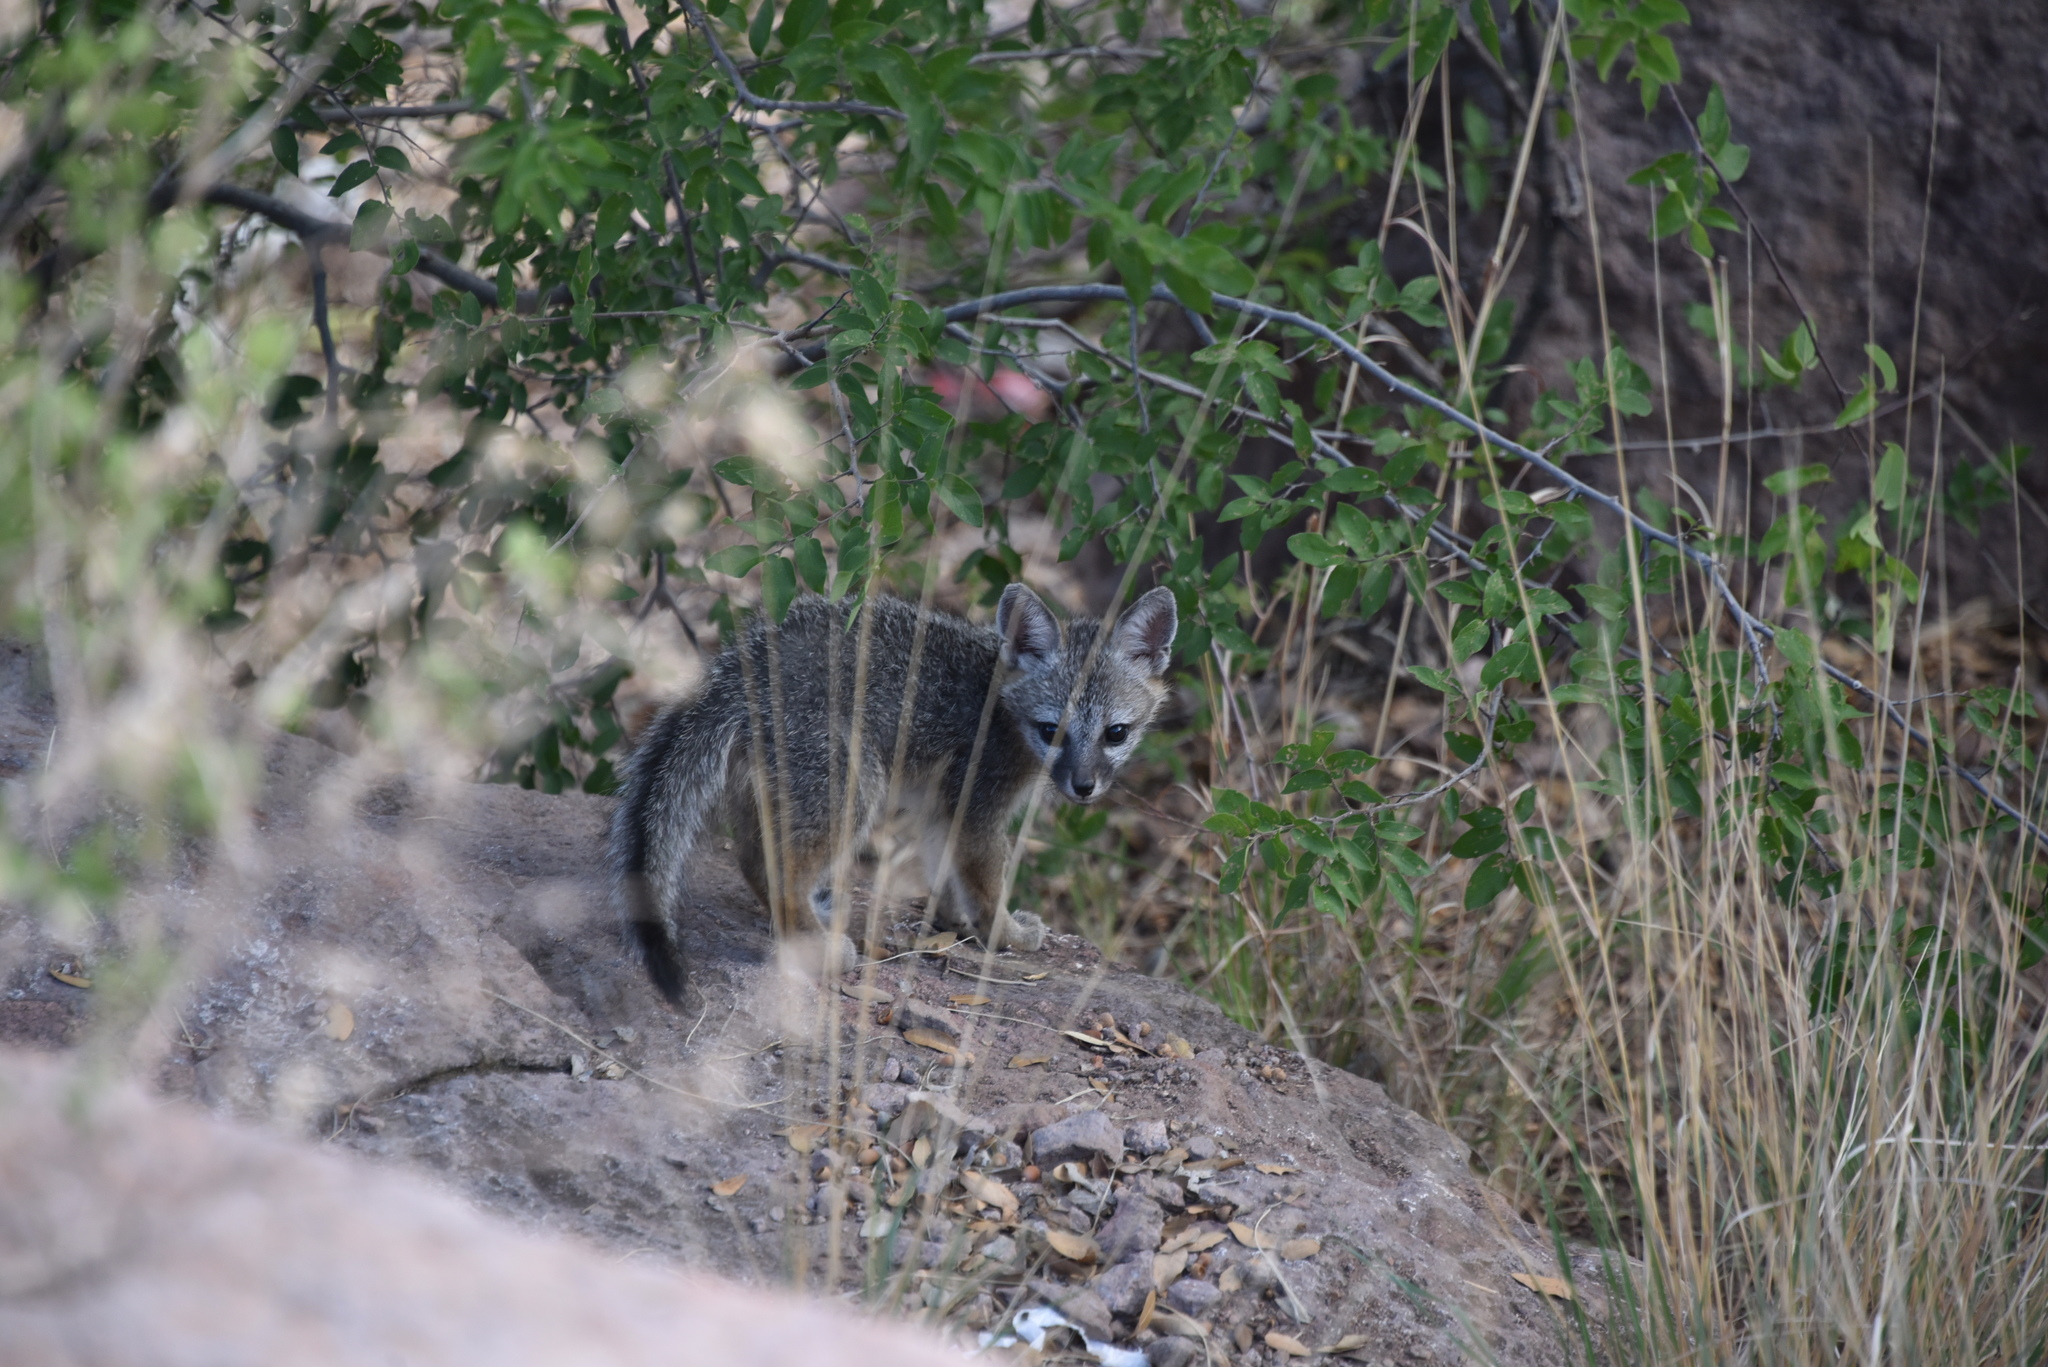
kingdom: Animalia
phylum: Chordata
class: Mammalia
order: Carnivora
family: Canidae
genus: Urocyon
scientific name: Urocyon cinereoargenteus
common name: Gray fox
